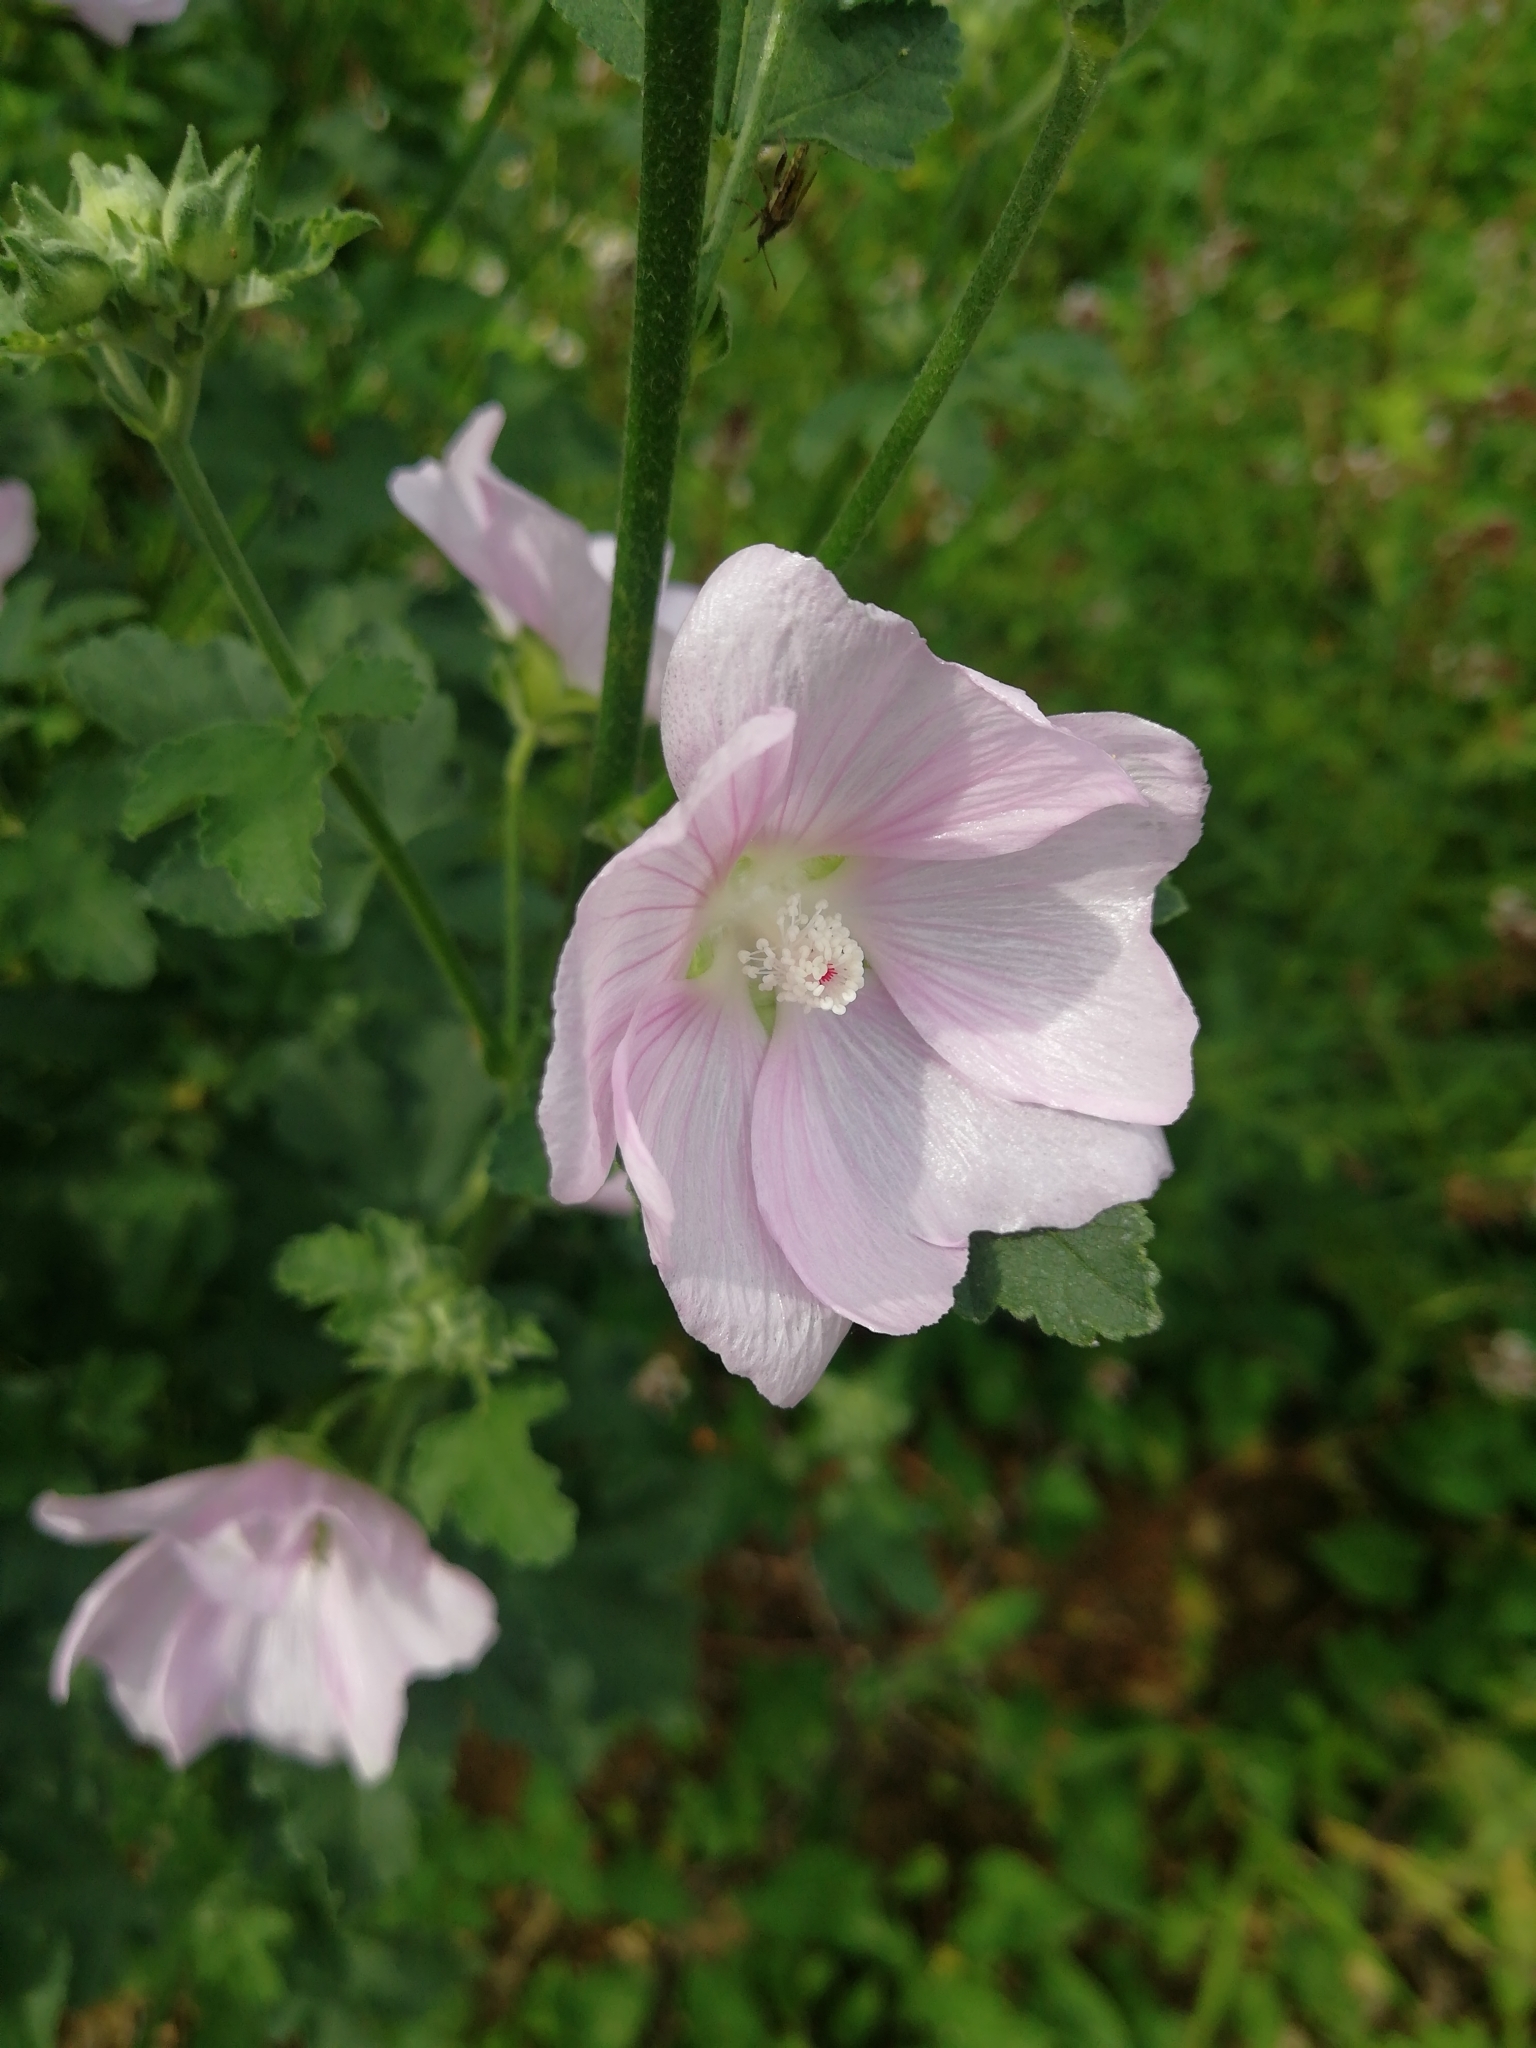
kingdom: Plantae
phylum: Tracheophyta
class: Magnoliopsida
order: Malvales
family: Malvaceae
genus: Malva
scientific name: Malva thuringiaca
